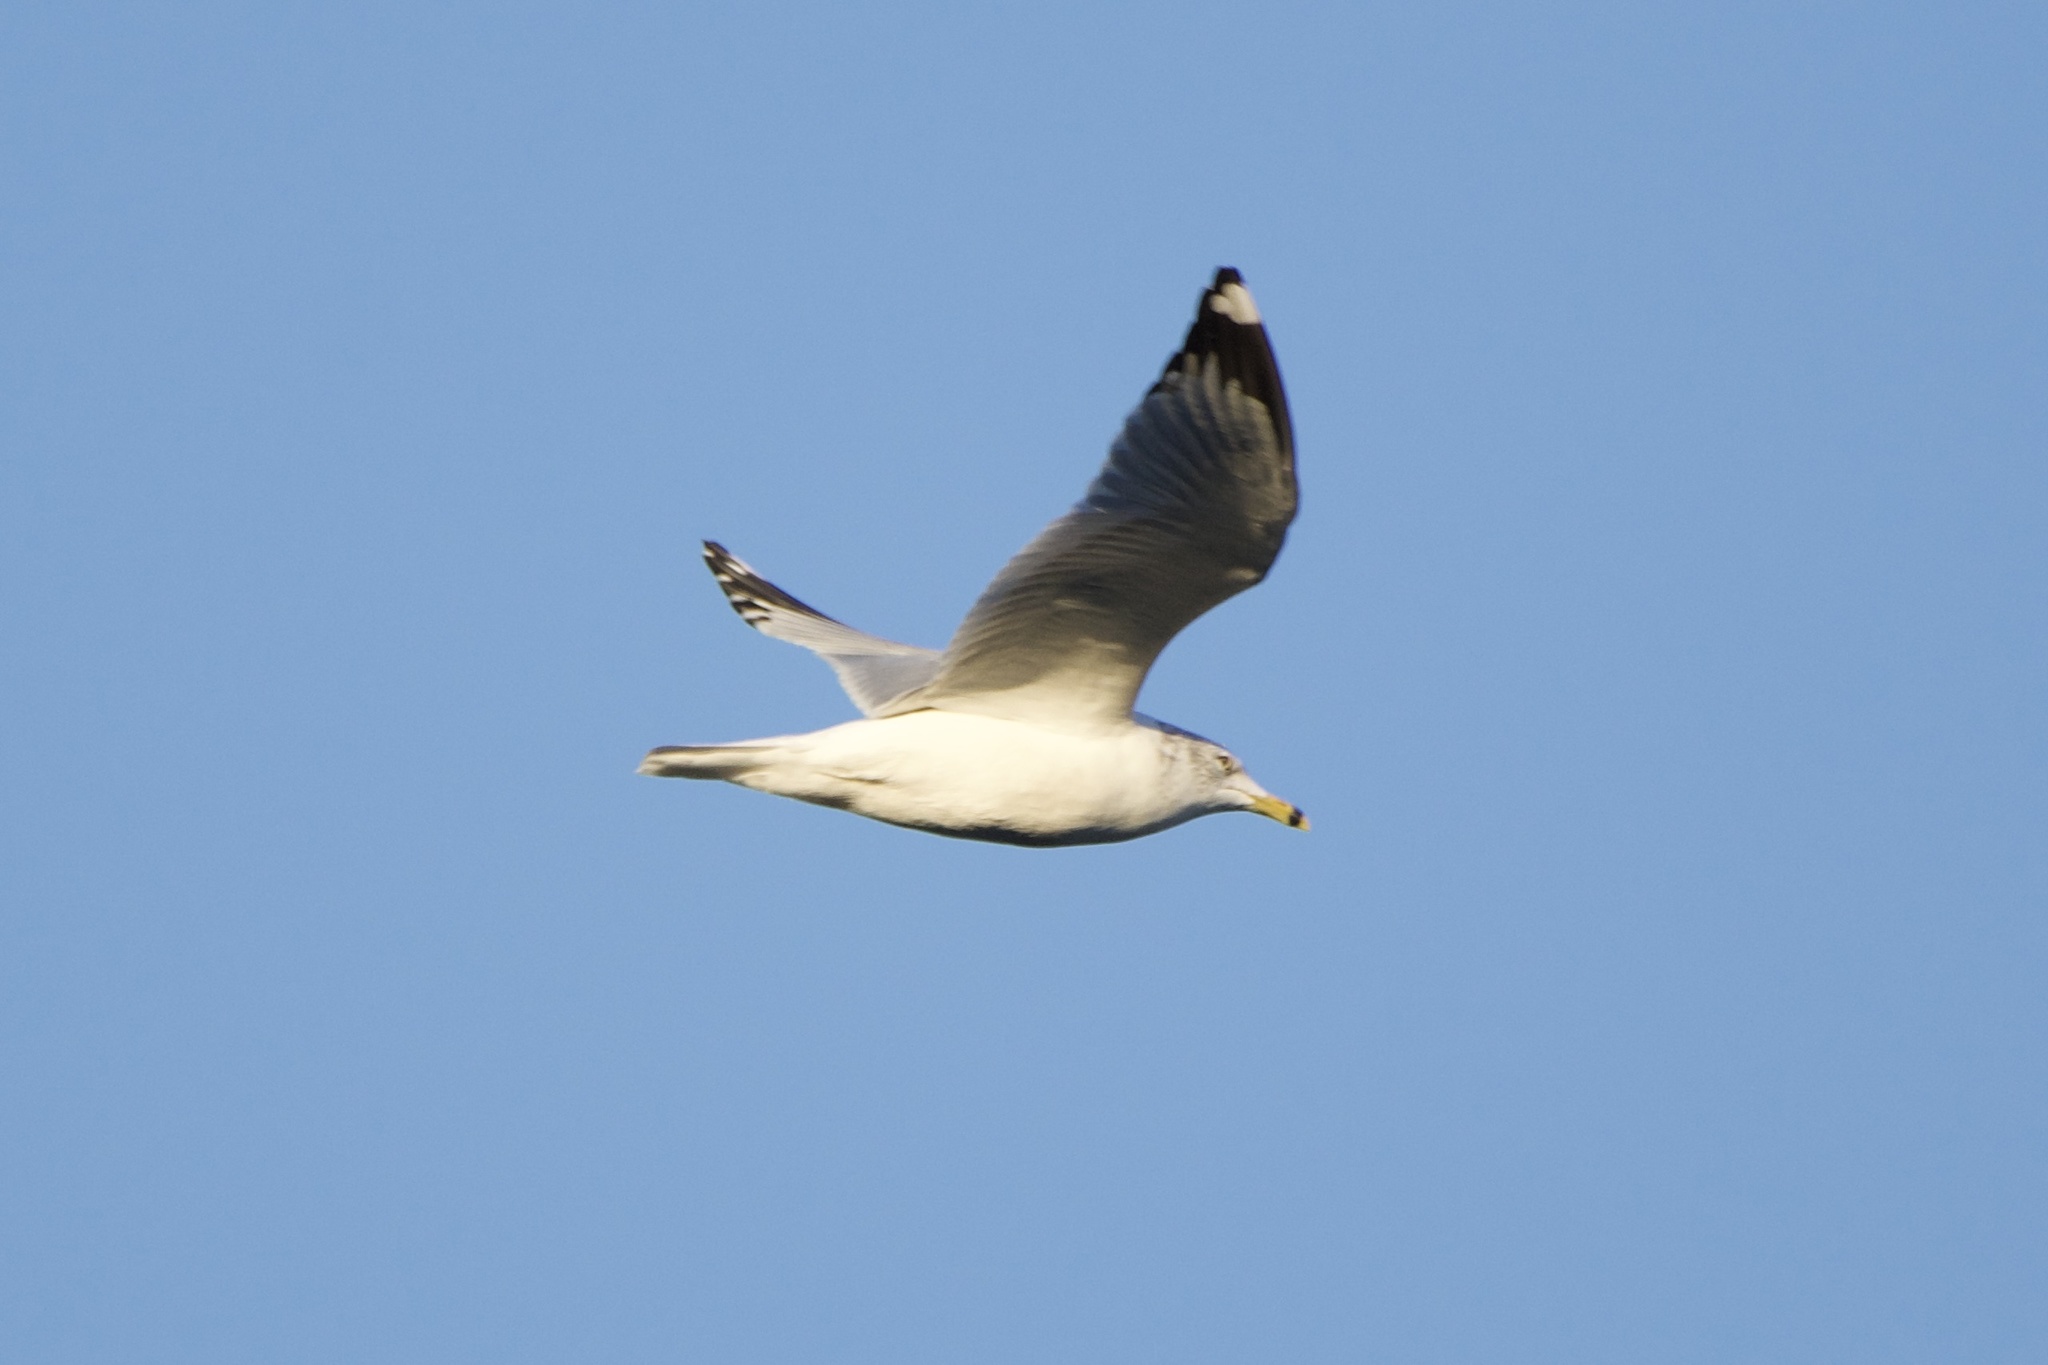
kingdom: Animalia
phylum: Chordata
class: Aves
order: Charadriiformes
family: Laridae
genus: Larus
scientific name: Larus delawarensis
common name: Ring-billed gull
